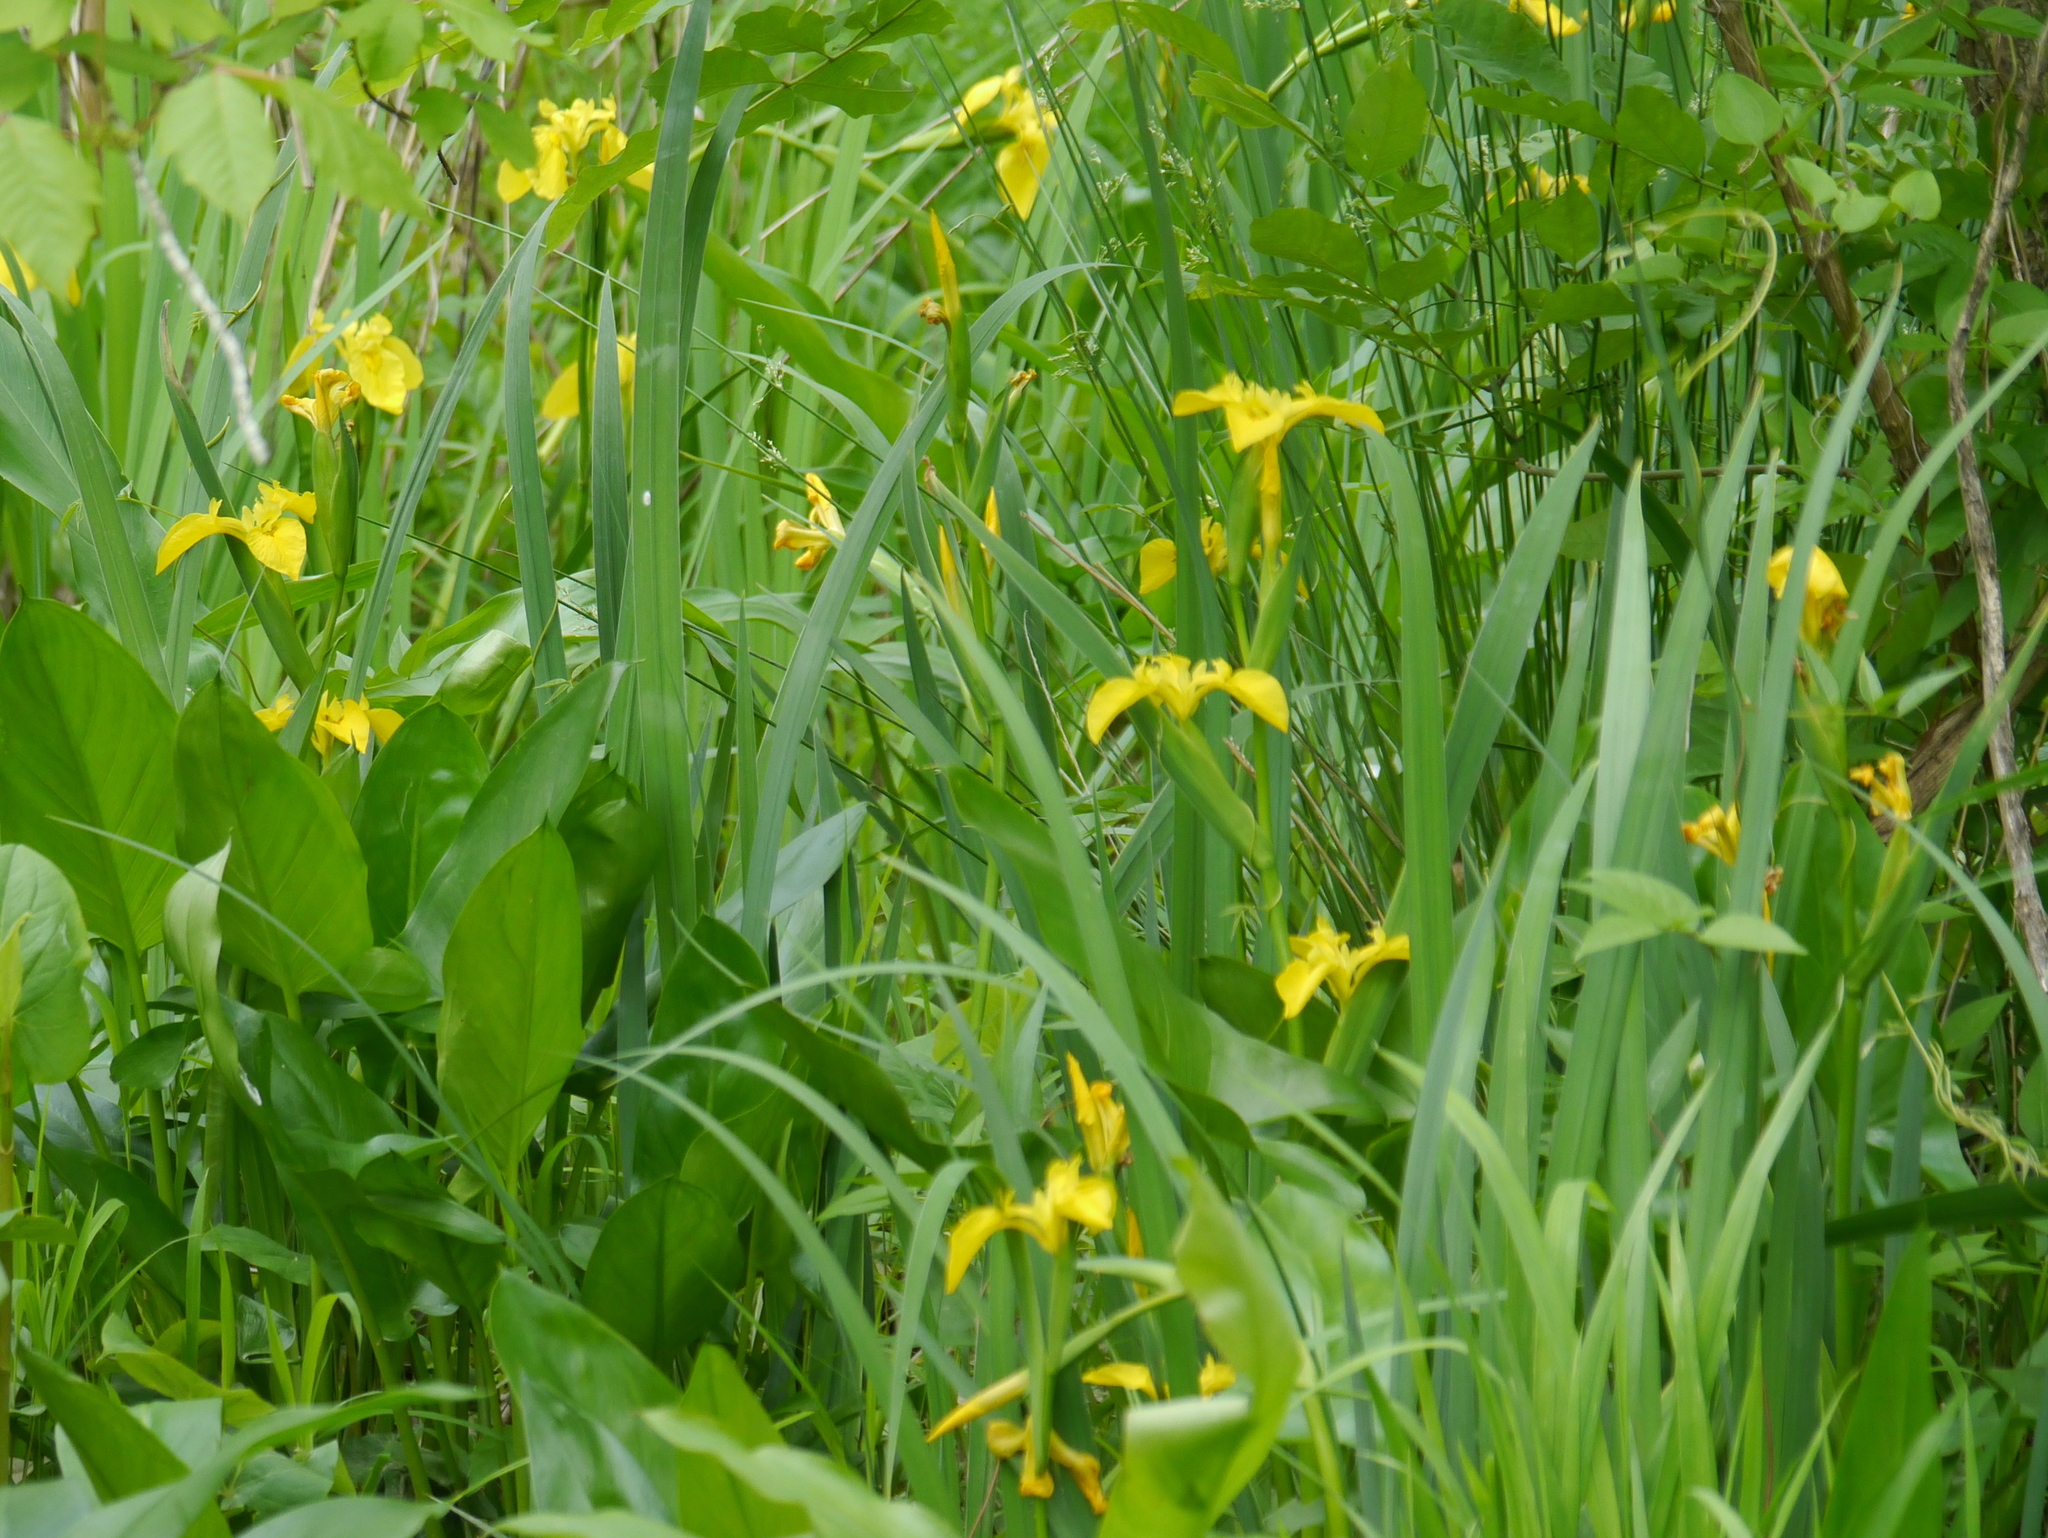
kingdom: Plantae
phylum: Tracheophyta
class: Liliopsida
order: Asparagales
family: Iridaceae
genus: Iris
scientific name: Iris pseudacorus
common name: Yellow flag
